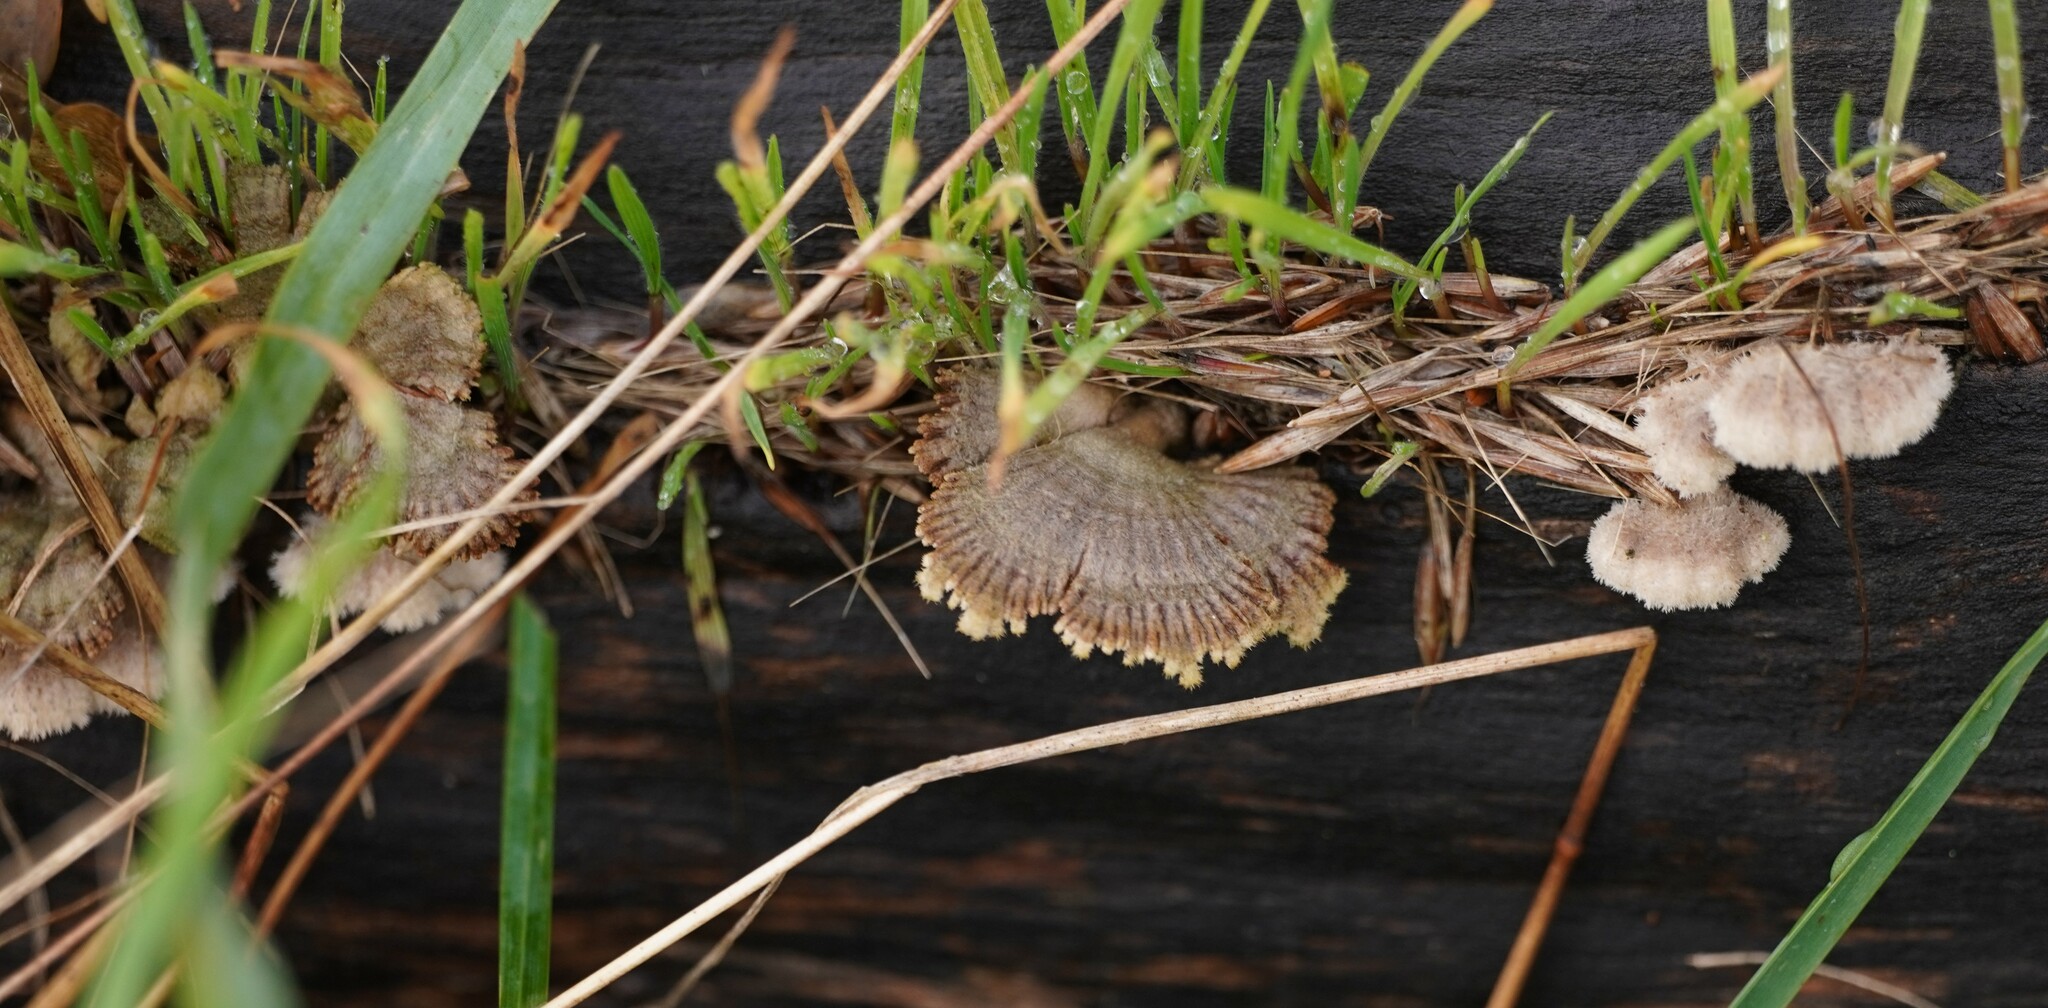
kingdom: Fungi
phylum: Basidiomycota
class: Agaricomycetes
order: Agaricales
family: Schizophyllaceae
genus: Schizophyllum
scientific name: Schizophyllum commune
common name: Common porecrust
